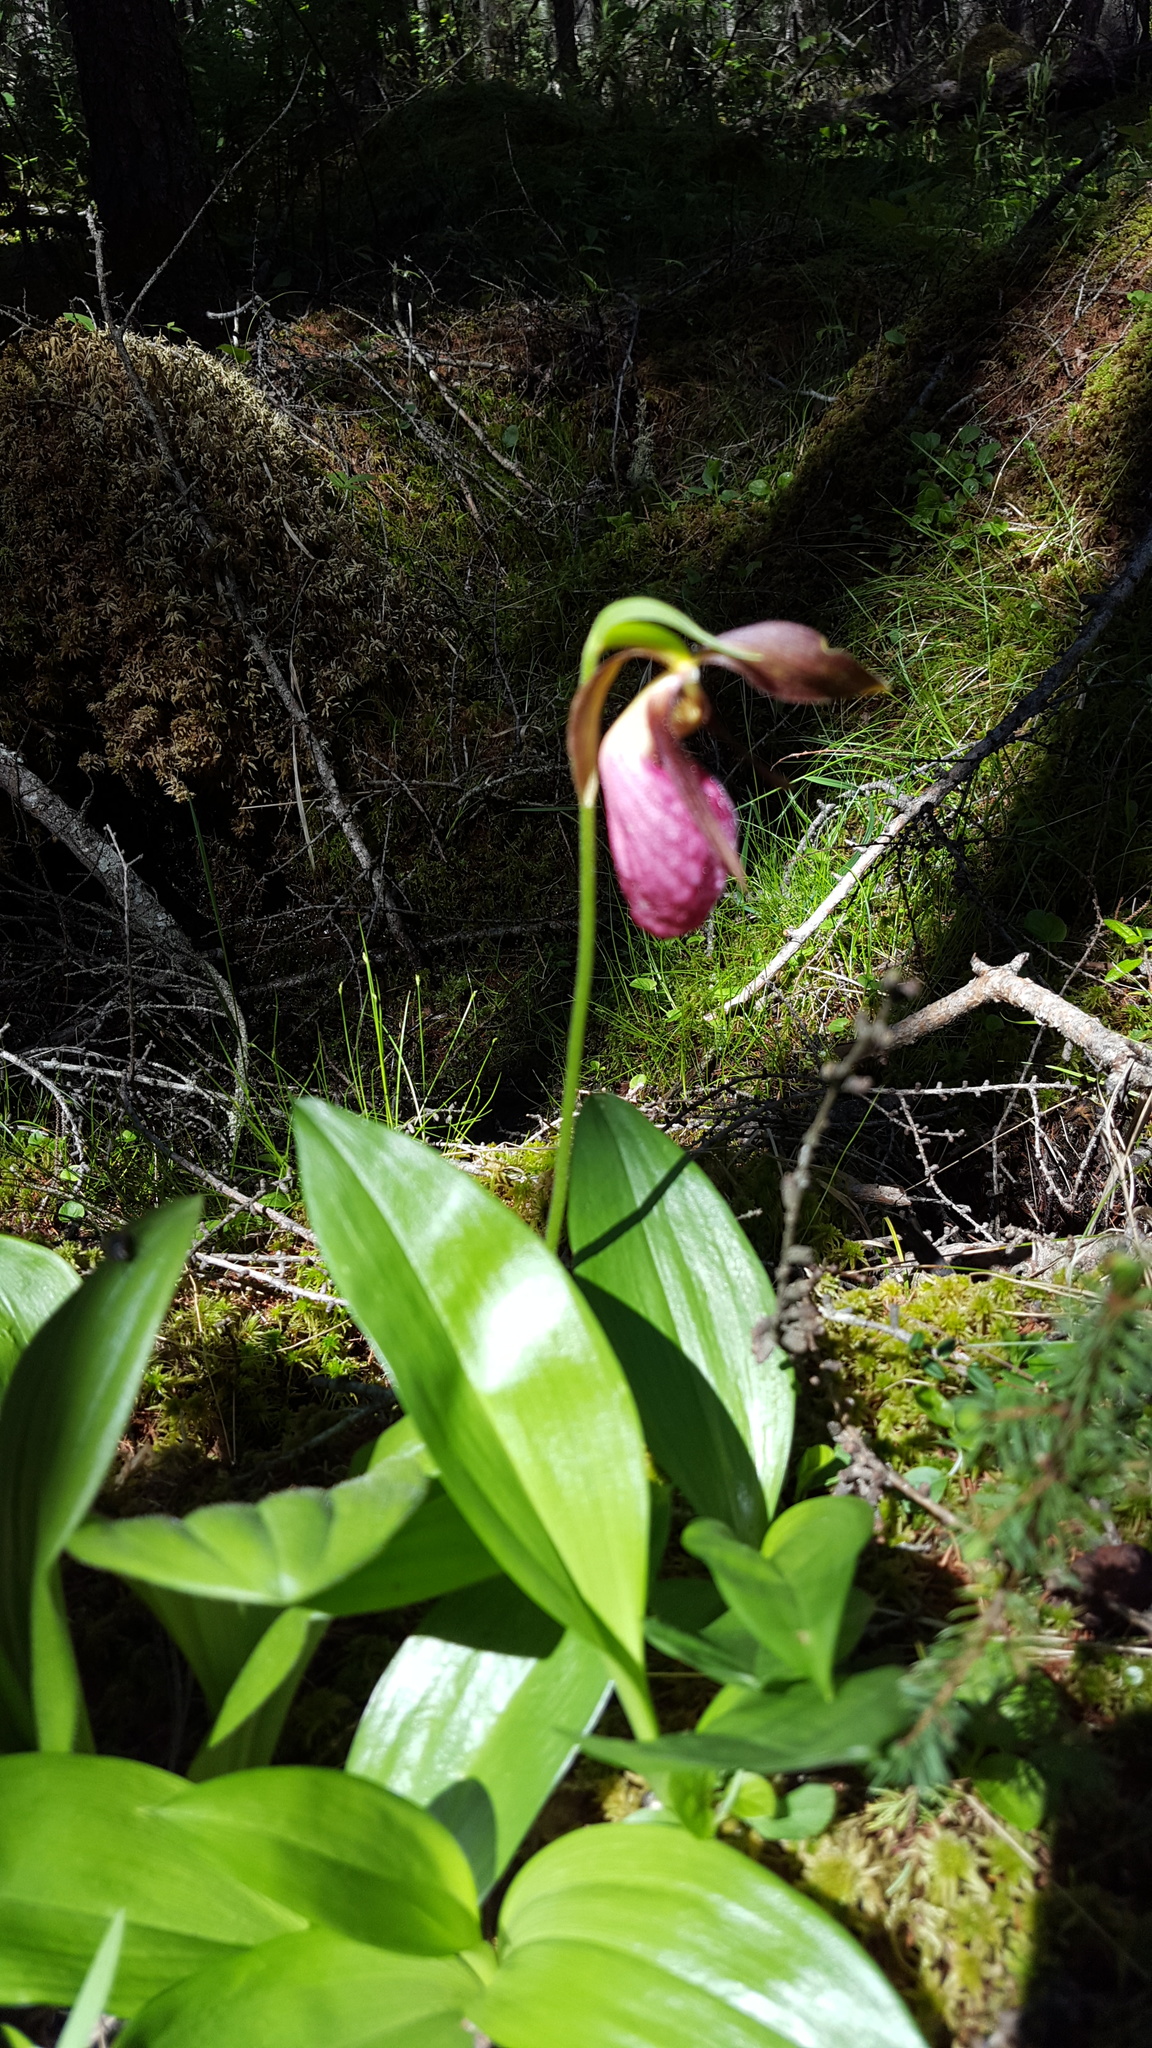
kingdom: Plantae
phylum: Tracheophyta
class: Liliopsida
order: Asparagales
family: Orchidaceae
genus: Cypripedium
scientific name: Cypripedium acaule
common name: Pink lady's-slipper
